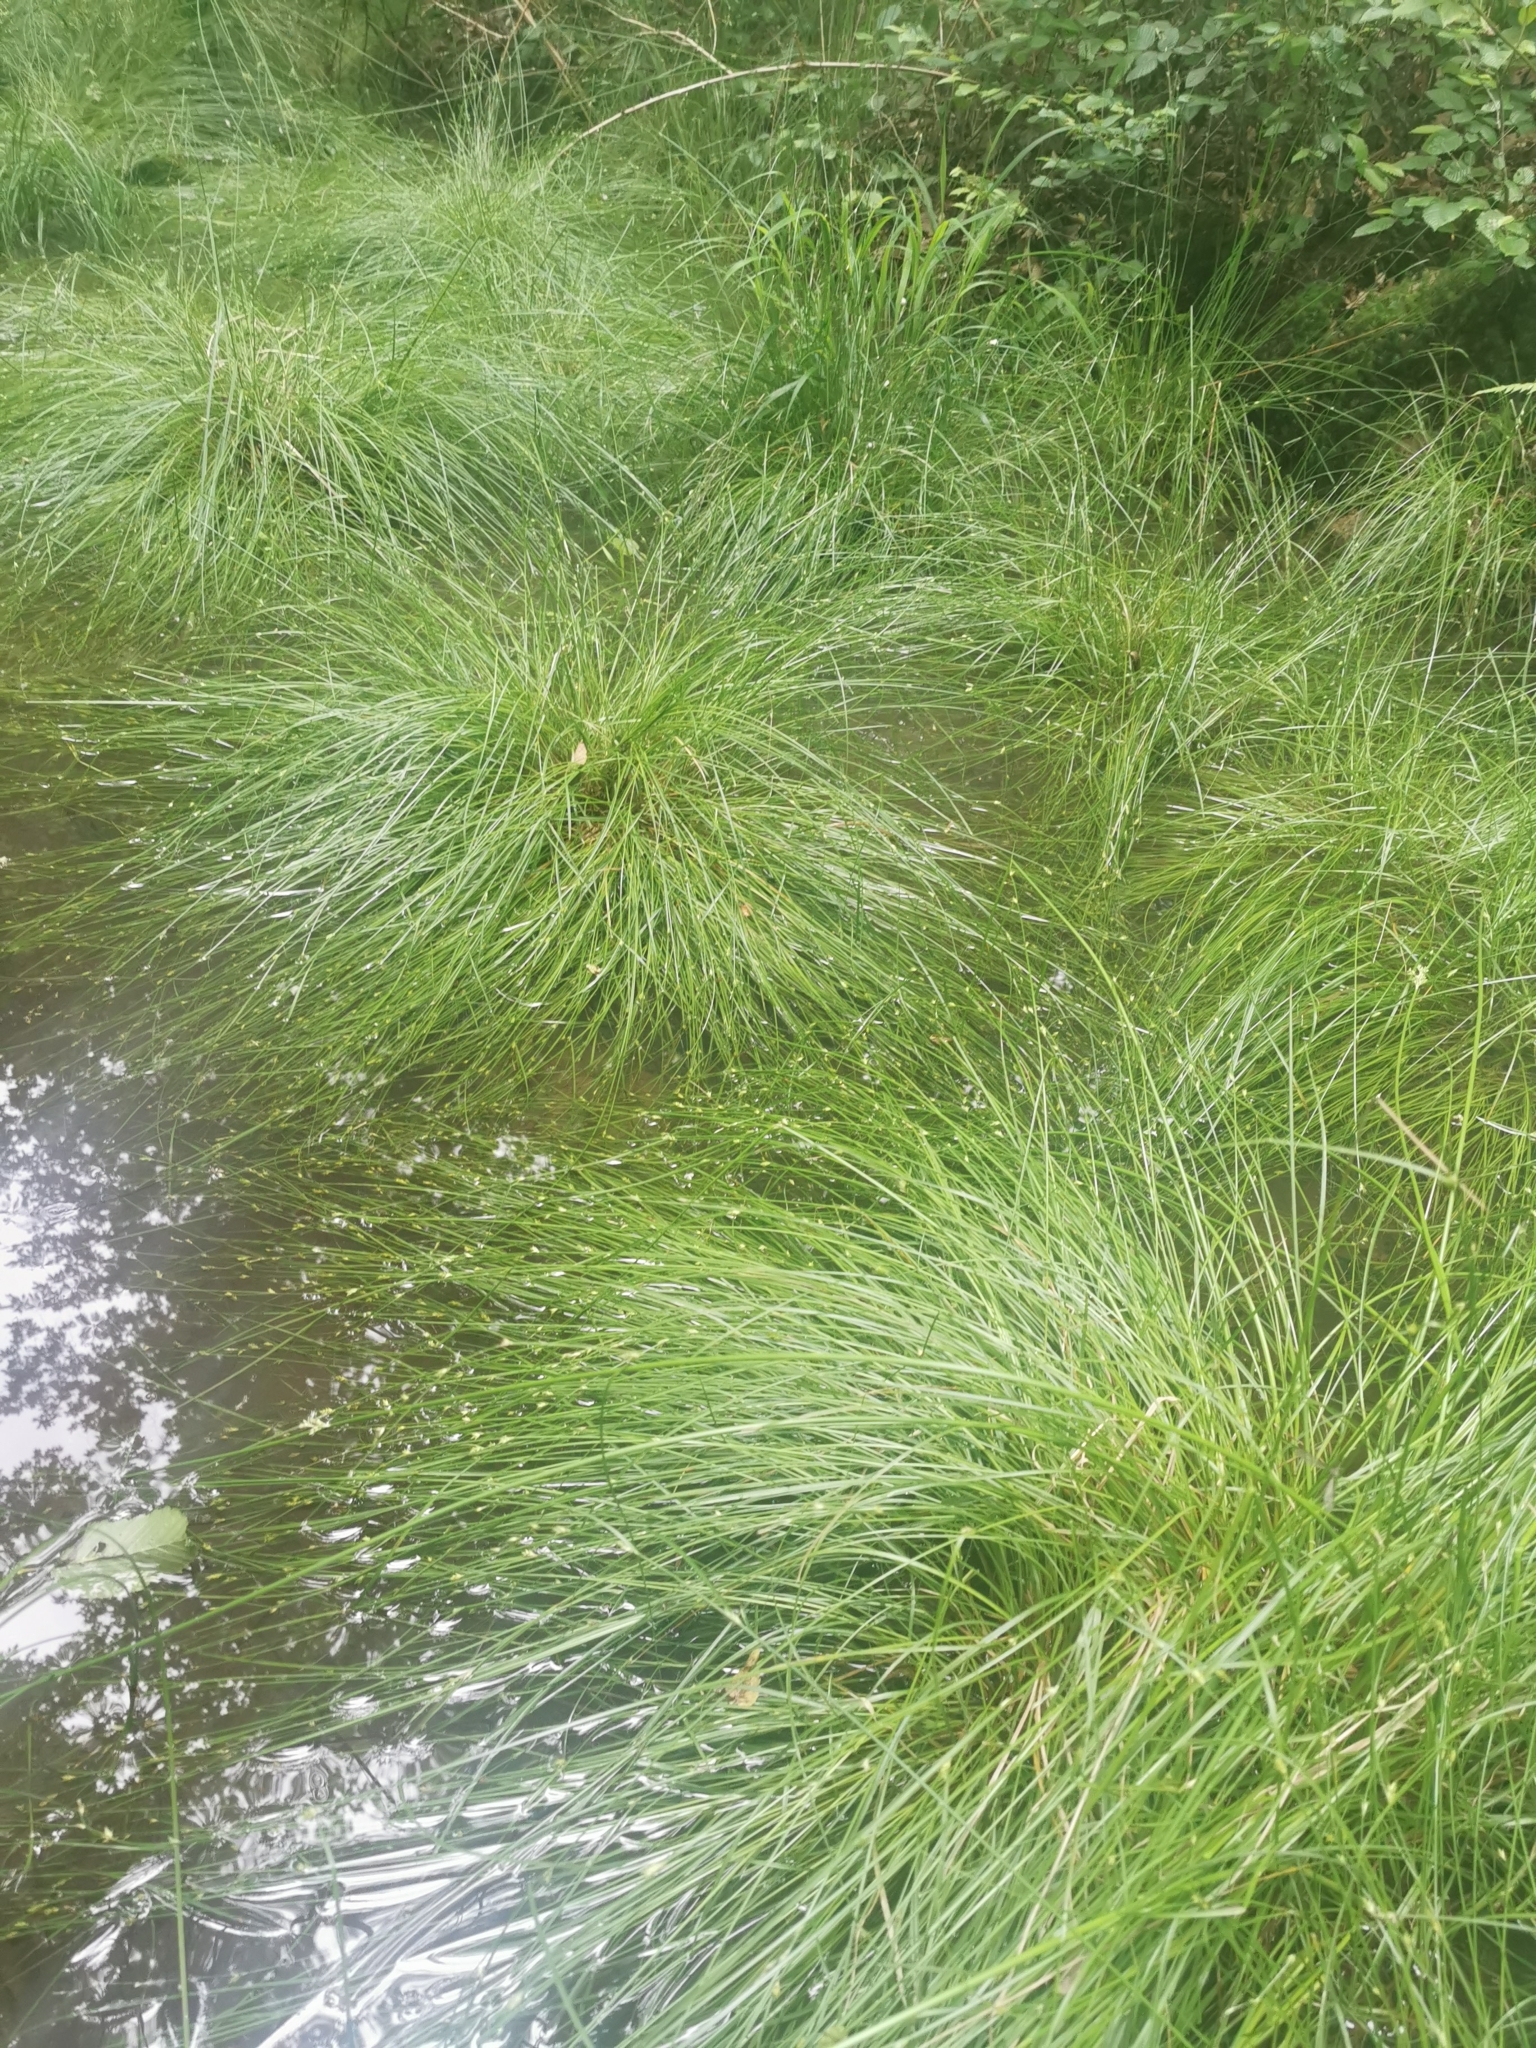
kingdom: Plantae
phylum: Tracheophyta
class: Liliopsida
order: Poales
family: Cyperaceae
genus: Carex
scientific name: Carex remota
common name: Remote sedge
